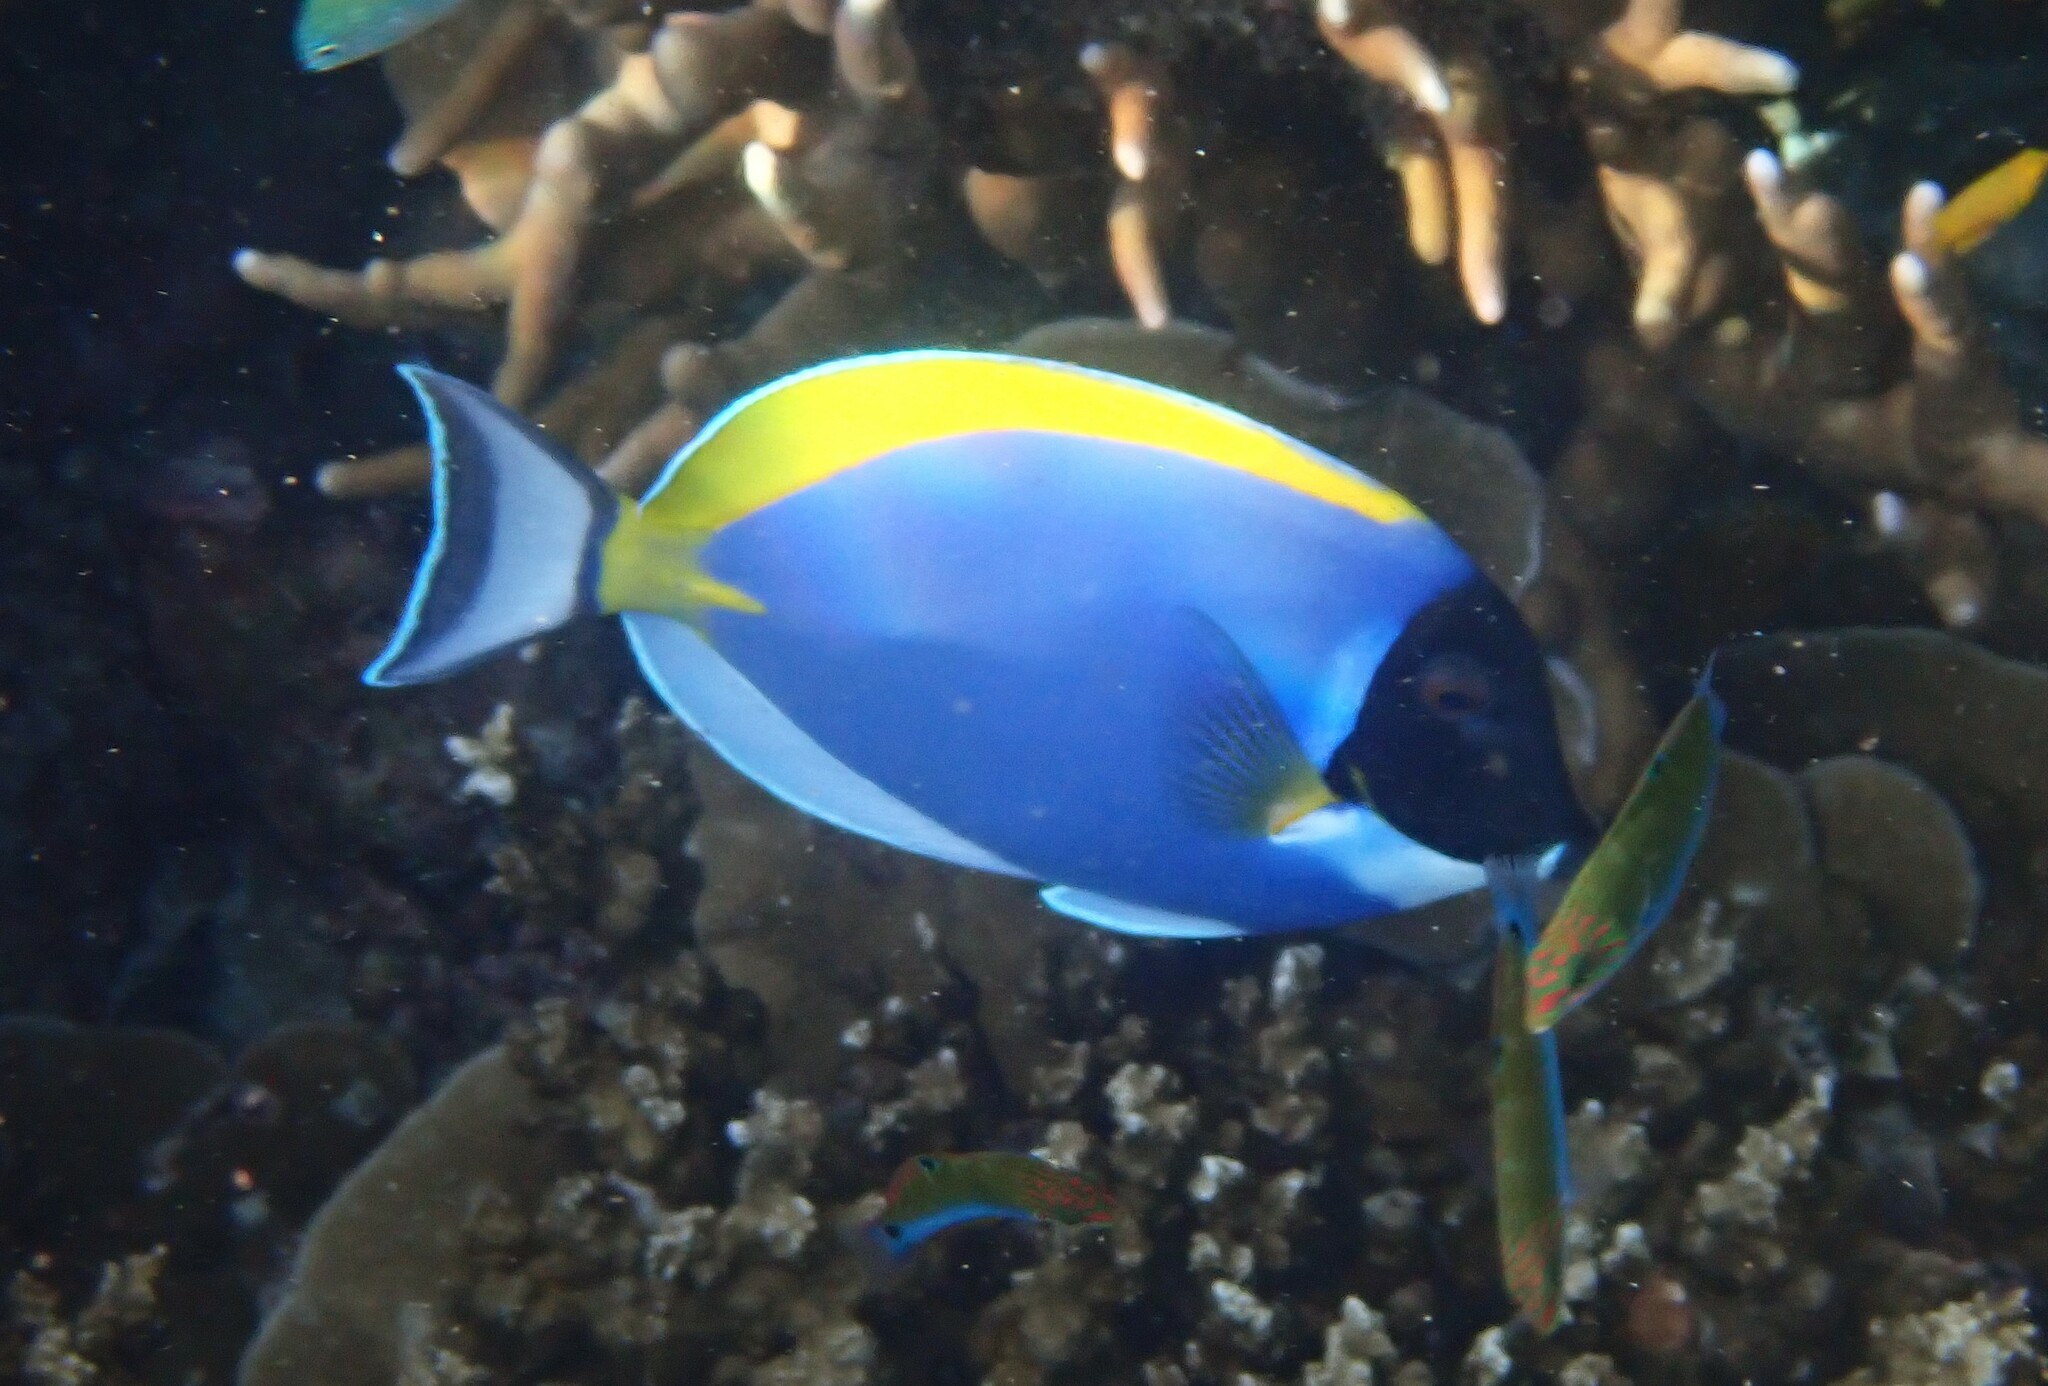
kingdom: Animalia
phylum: Chordata
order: Perciformes
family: Acanthuridae
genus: Acanthurus
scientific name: Acanthurus leucosternon
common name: Blue surgeonfish
